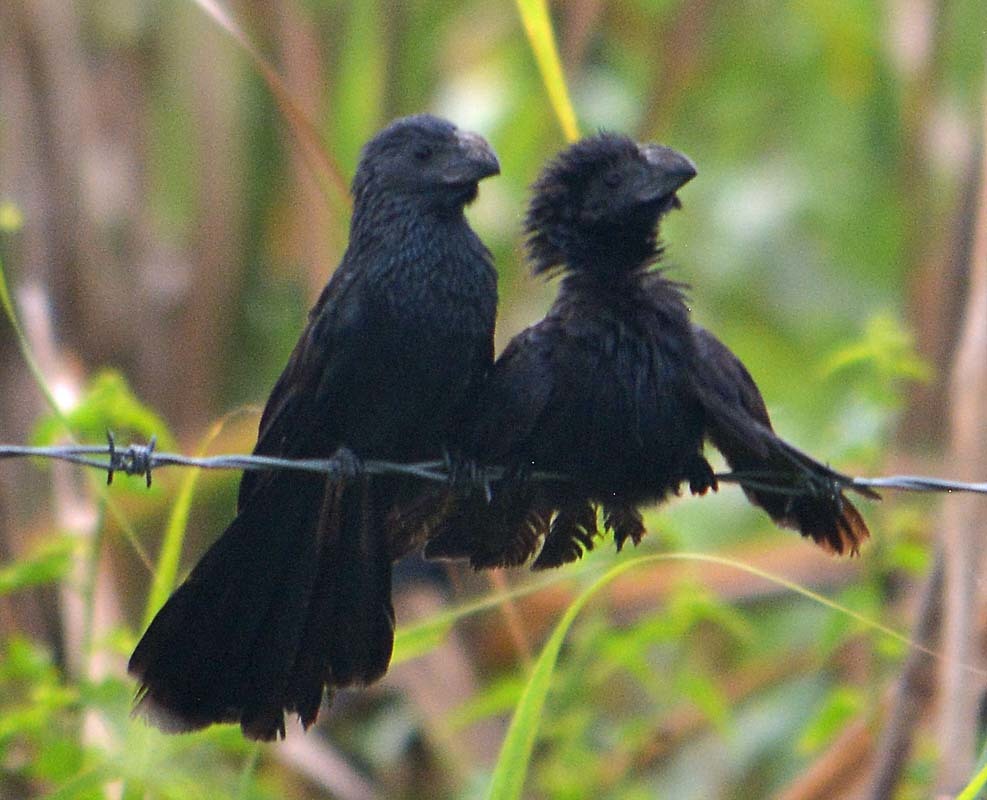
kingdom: Animalia
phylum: Chordata
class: Aves
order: Cuculiformes
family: Cuculidae
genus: Crotophaga
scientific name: Crotophaga sulcirostris
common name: Groove-billed ani
